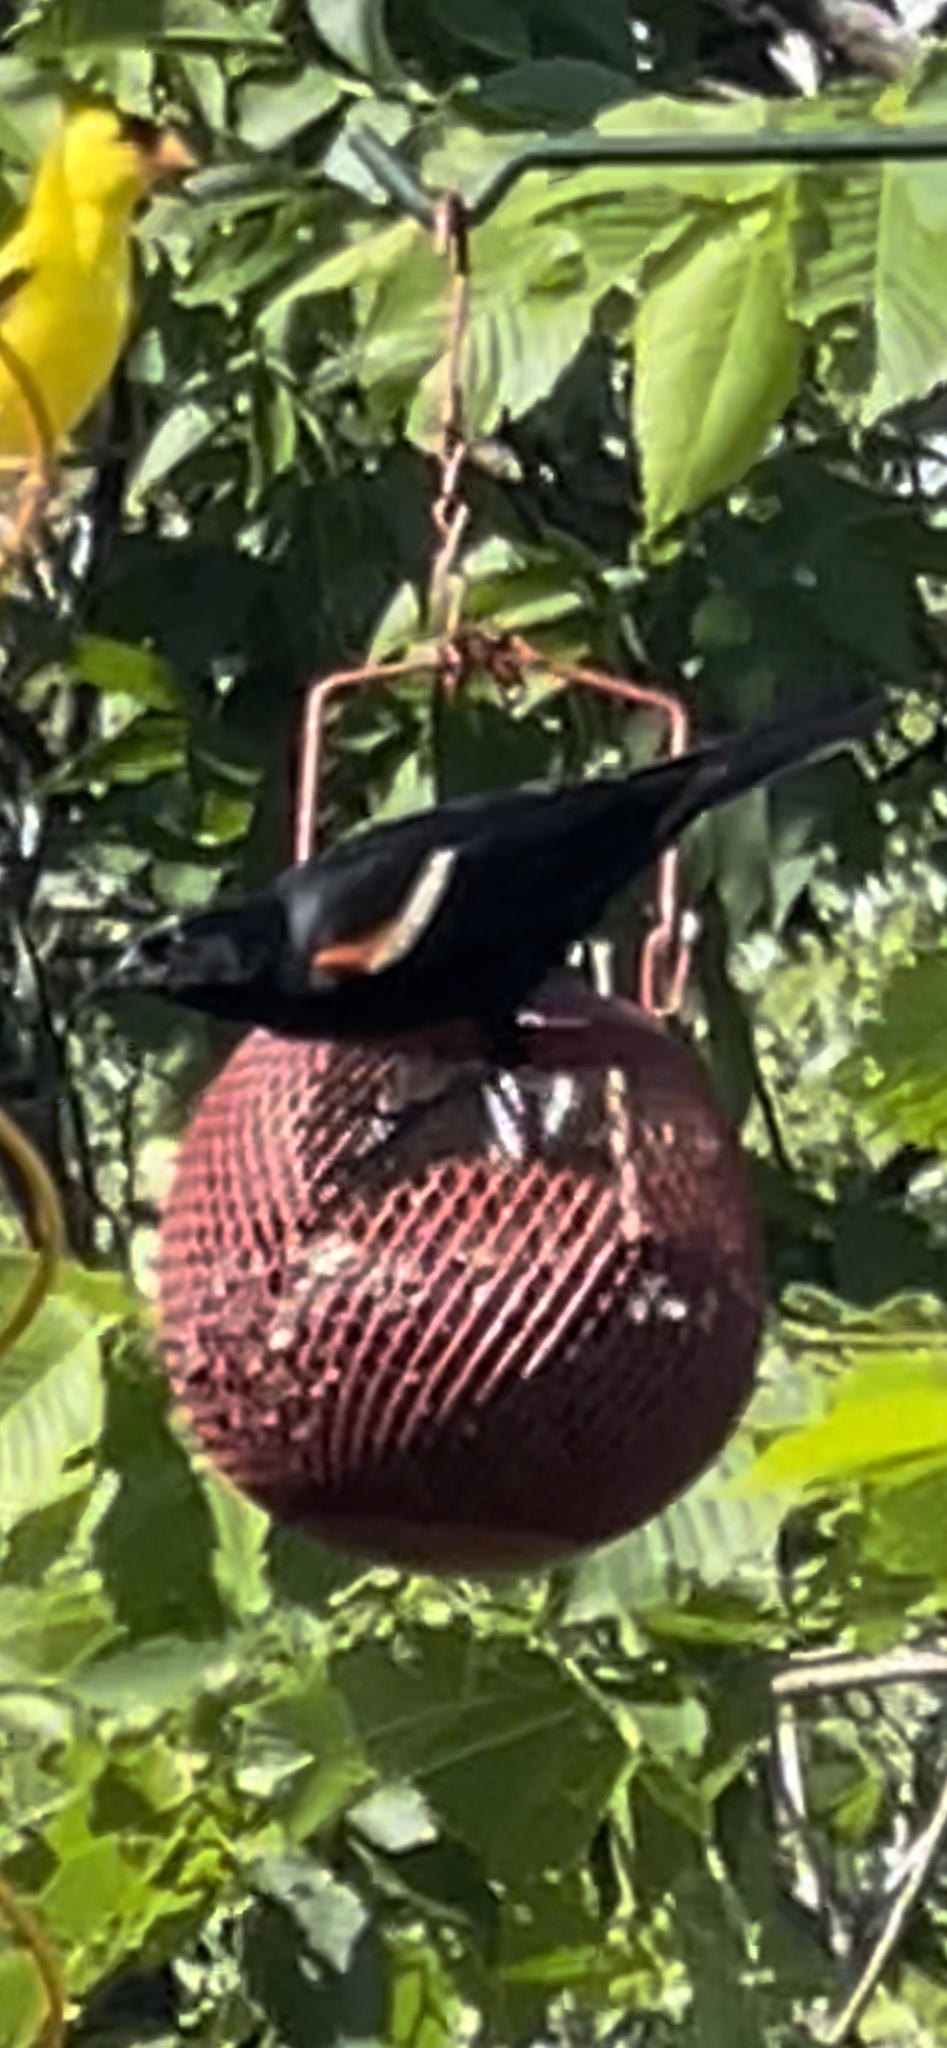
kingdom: Animalia
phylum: Chordata
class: Aves
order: Passeriformes
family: Icteridae
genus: Agelaius
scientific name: Agelaius phoeniceus
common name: Red-winged blackbird
